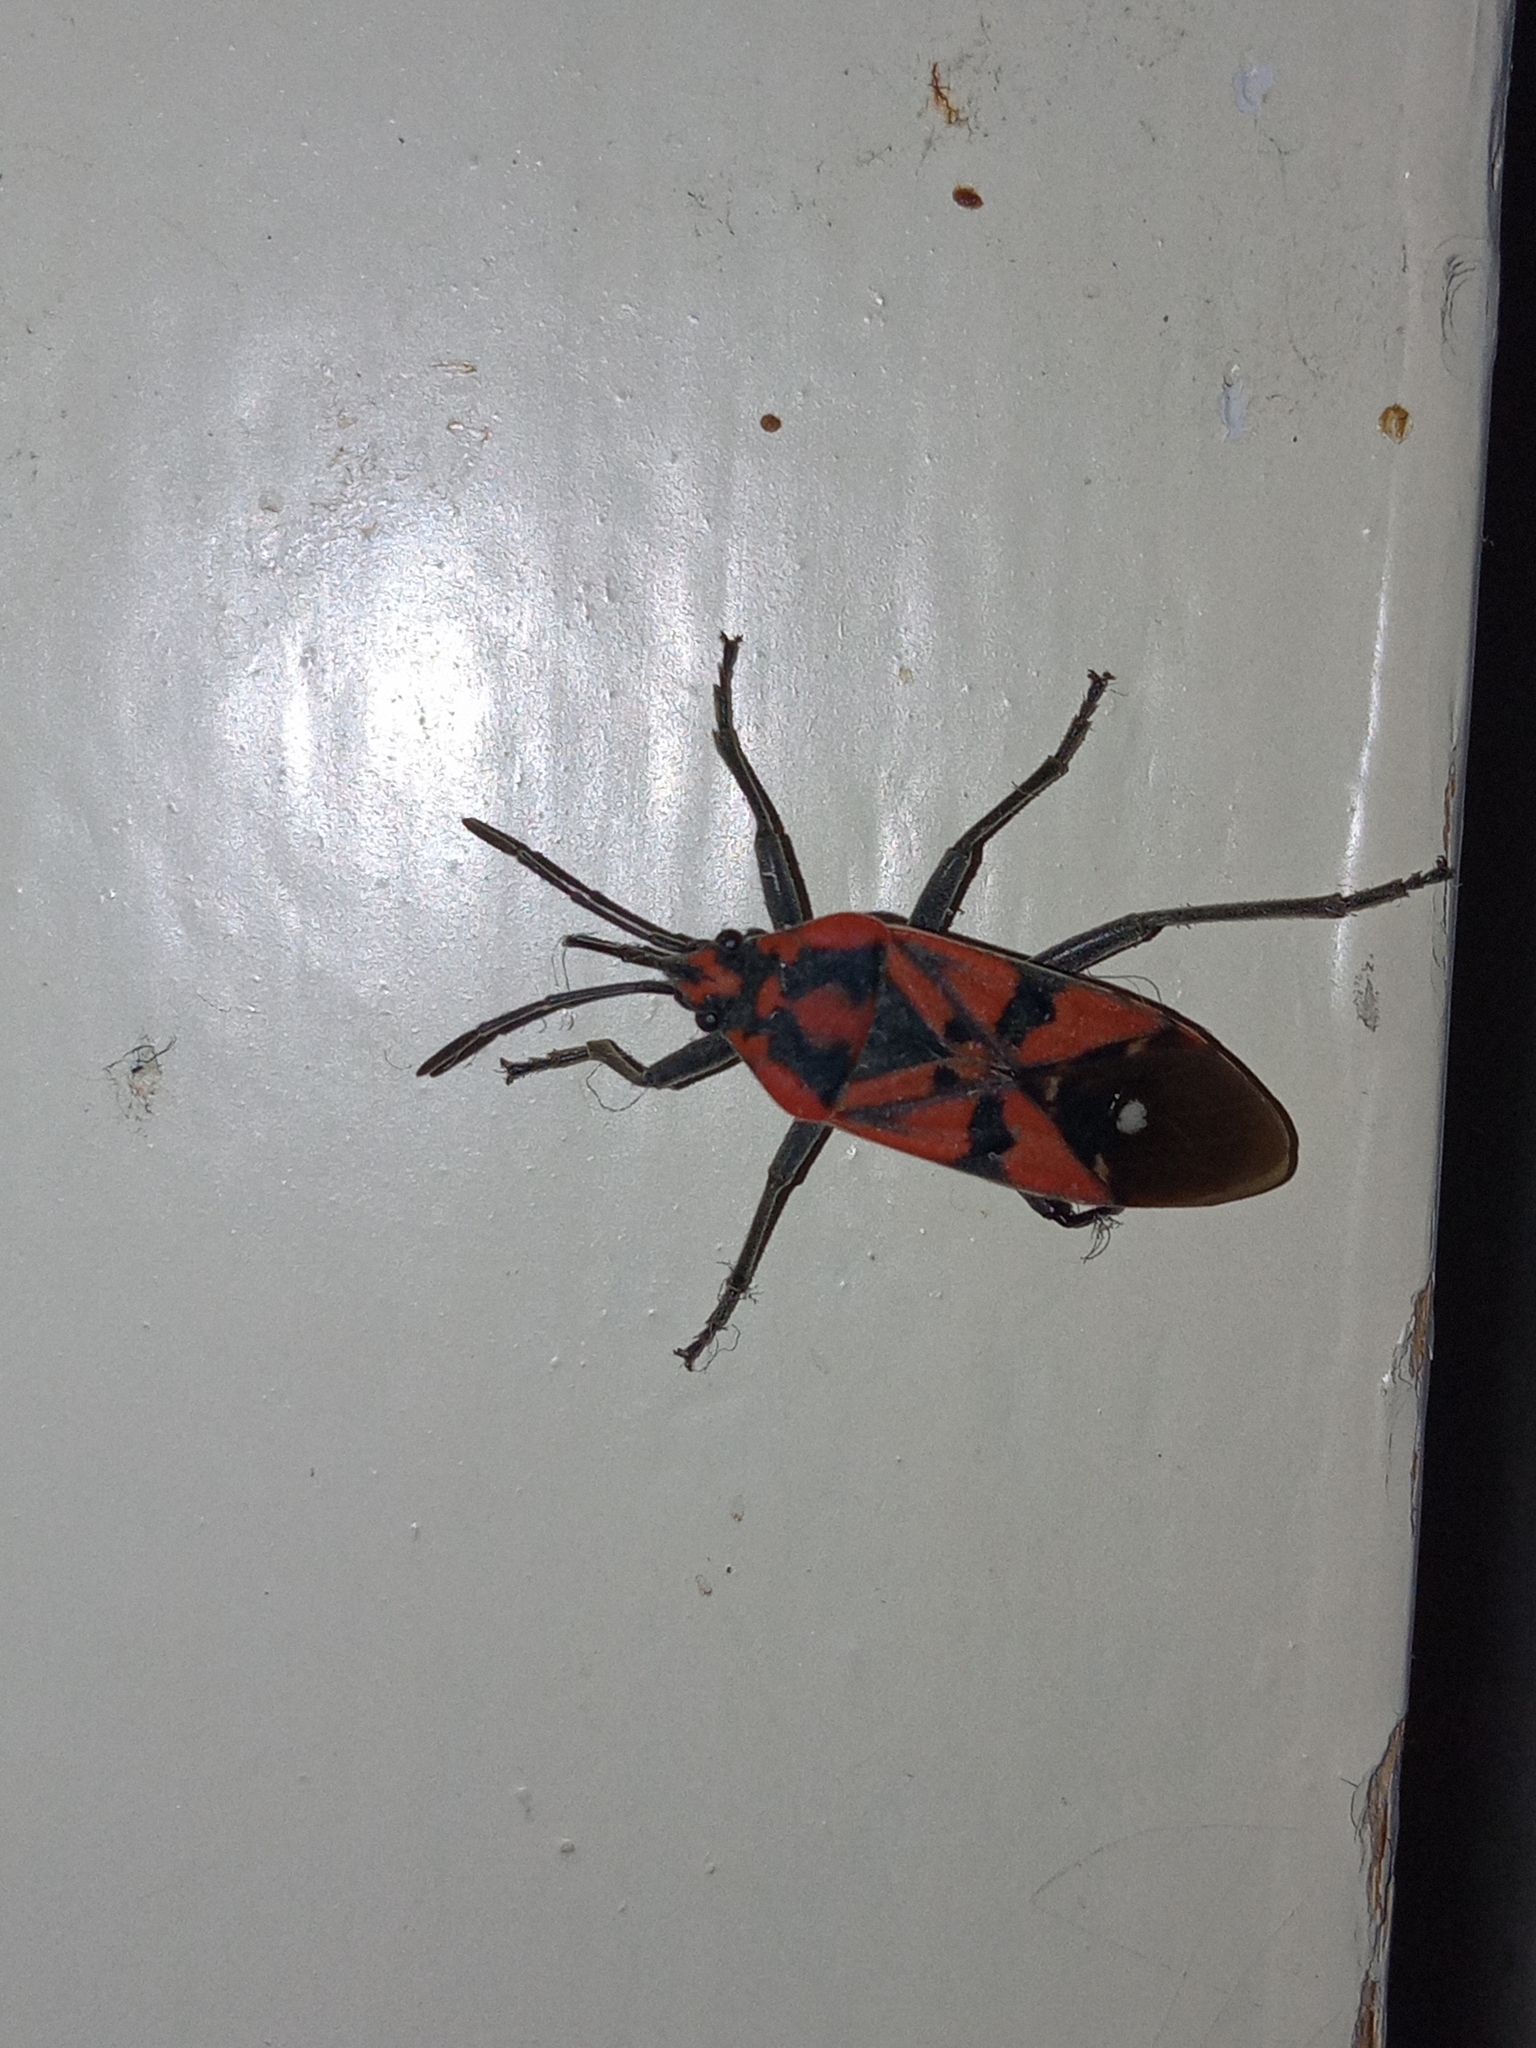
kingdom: Animalia
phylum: Arthropoda
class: Insecta
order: Hemiptera
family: Lygaeidae
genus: Spilostethus
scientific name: Spilostethus pandurus
